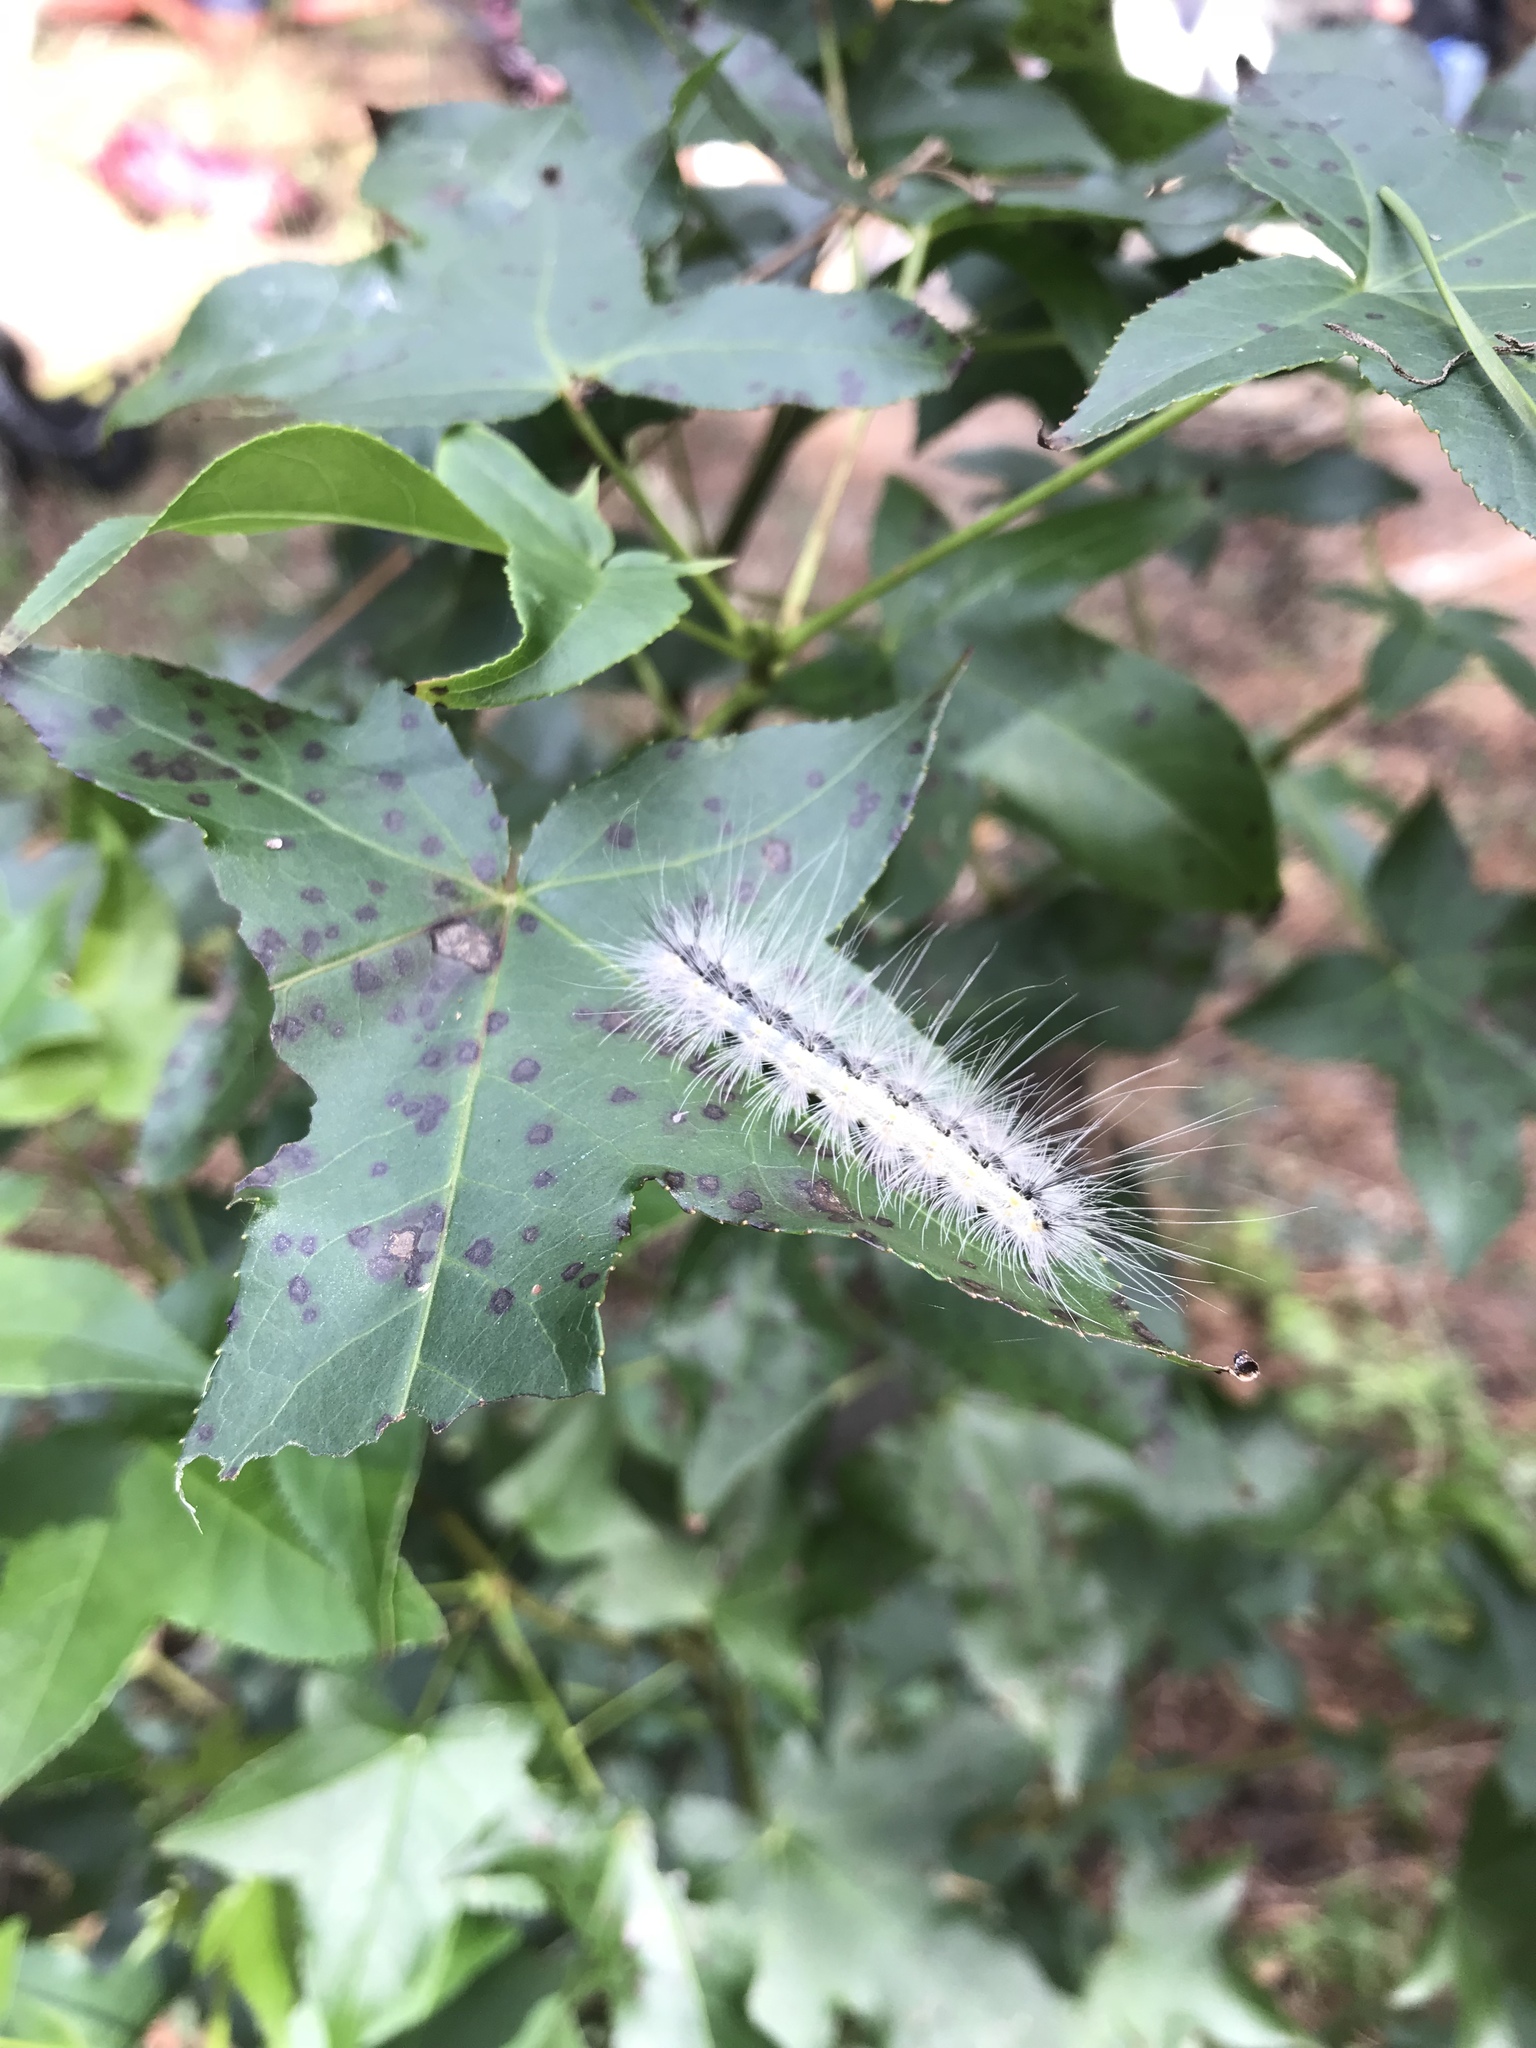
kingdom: Animalia
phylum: Arthropoda
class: Insecta
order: Lepidoptera
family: Erebidae
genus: Hyphantria
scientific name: Hyphantria cunea
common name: American white moth
